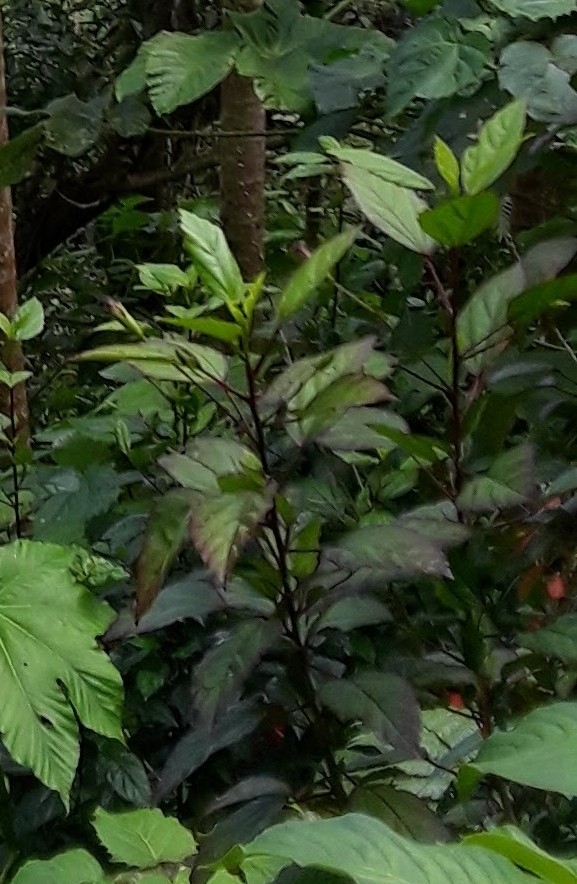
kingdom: Plantae
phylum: Tracheophyta
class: Magnoliopsida
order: Malvales
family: Malvaceae
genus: Hibiscus
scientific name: Hibiscus archeri
